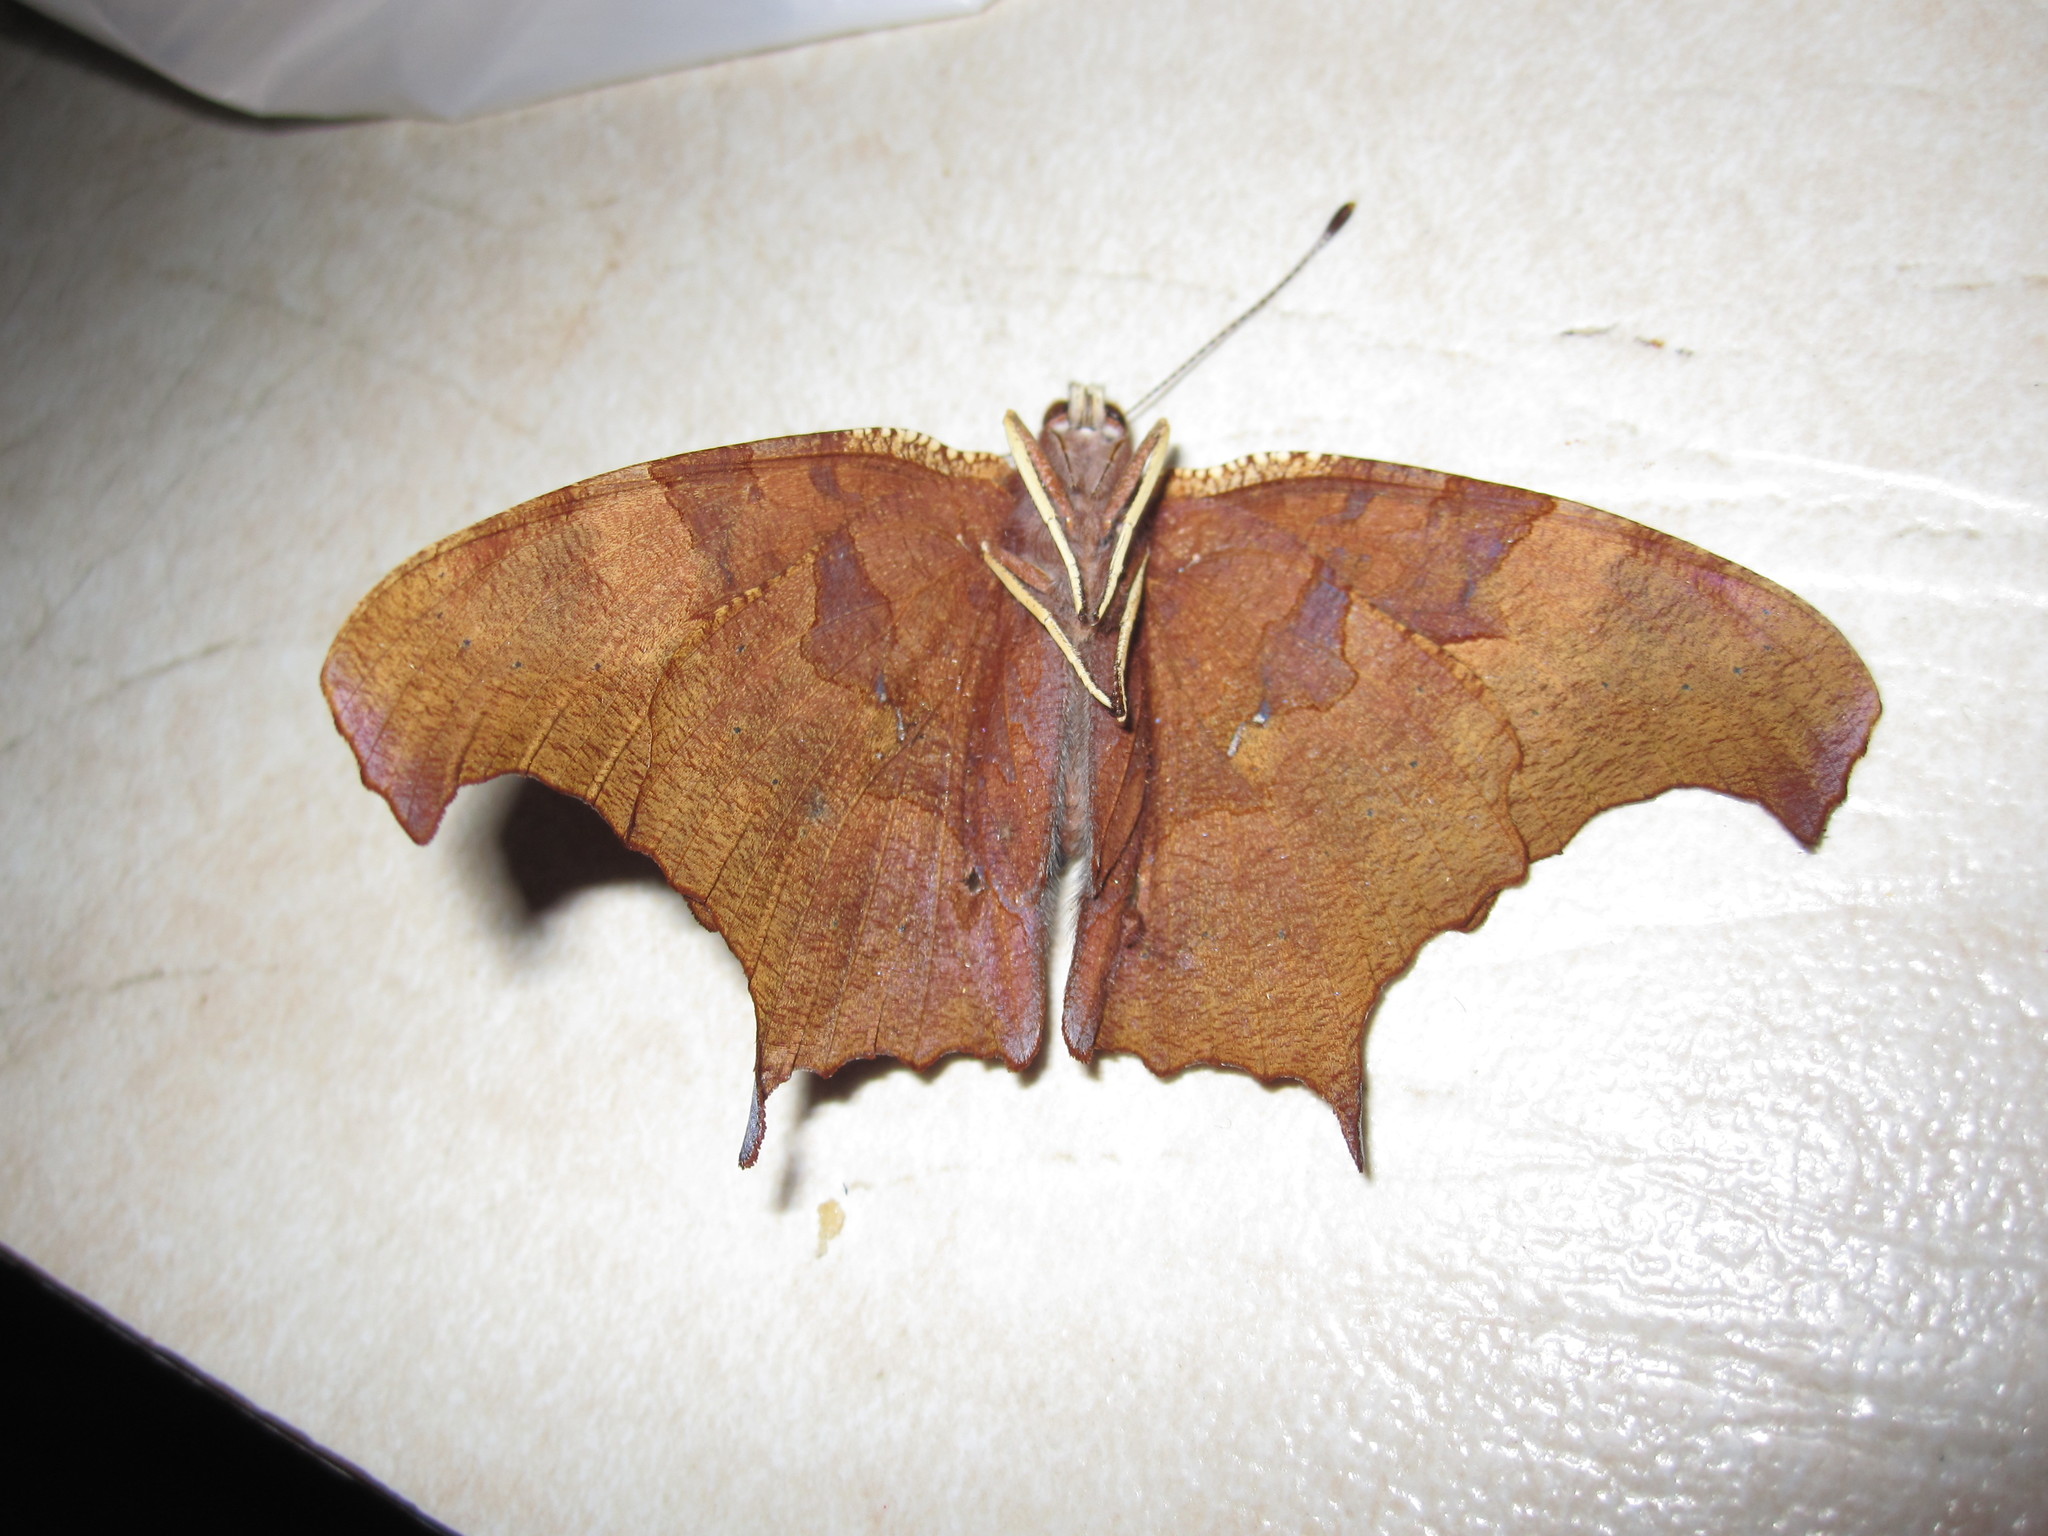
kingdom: Animalia
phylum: Arthropoda
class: Insecta
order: Lepidoptera
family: Nymphalidae
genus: Polygonia
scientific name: Polygonia interrogationis
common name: Question mark
